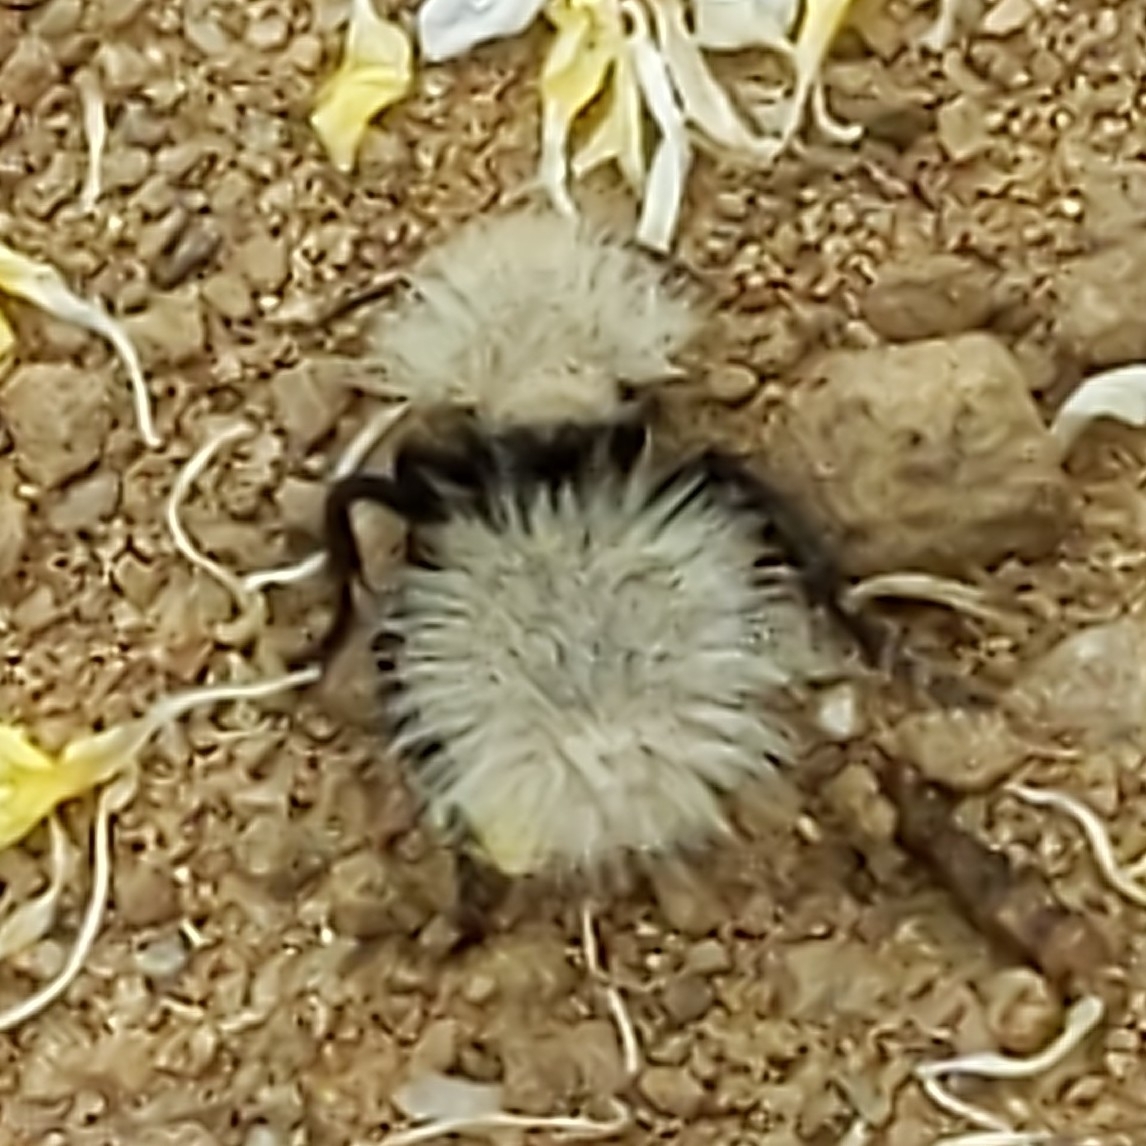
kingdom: Animalia
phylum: Arthropoda
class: Insecta
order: Hymenoptera
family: Mutillidae
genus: Dasymutilla
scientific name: Dasymutilla
